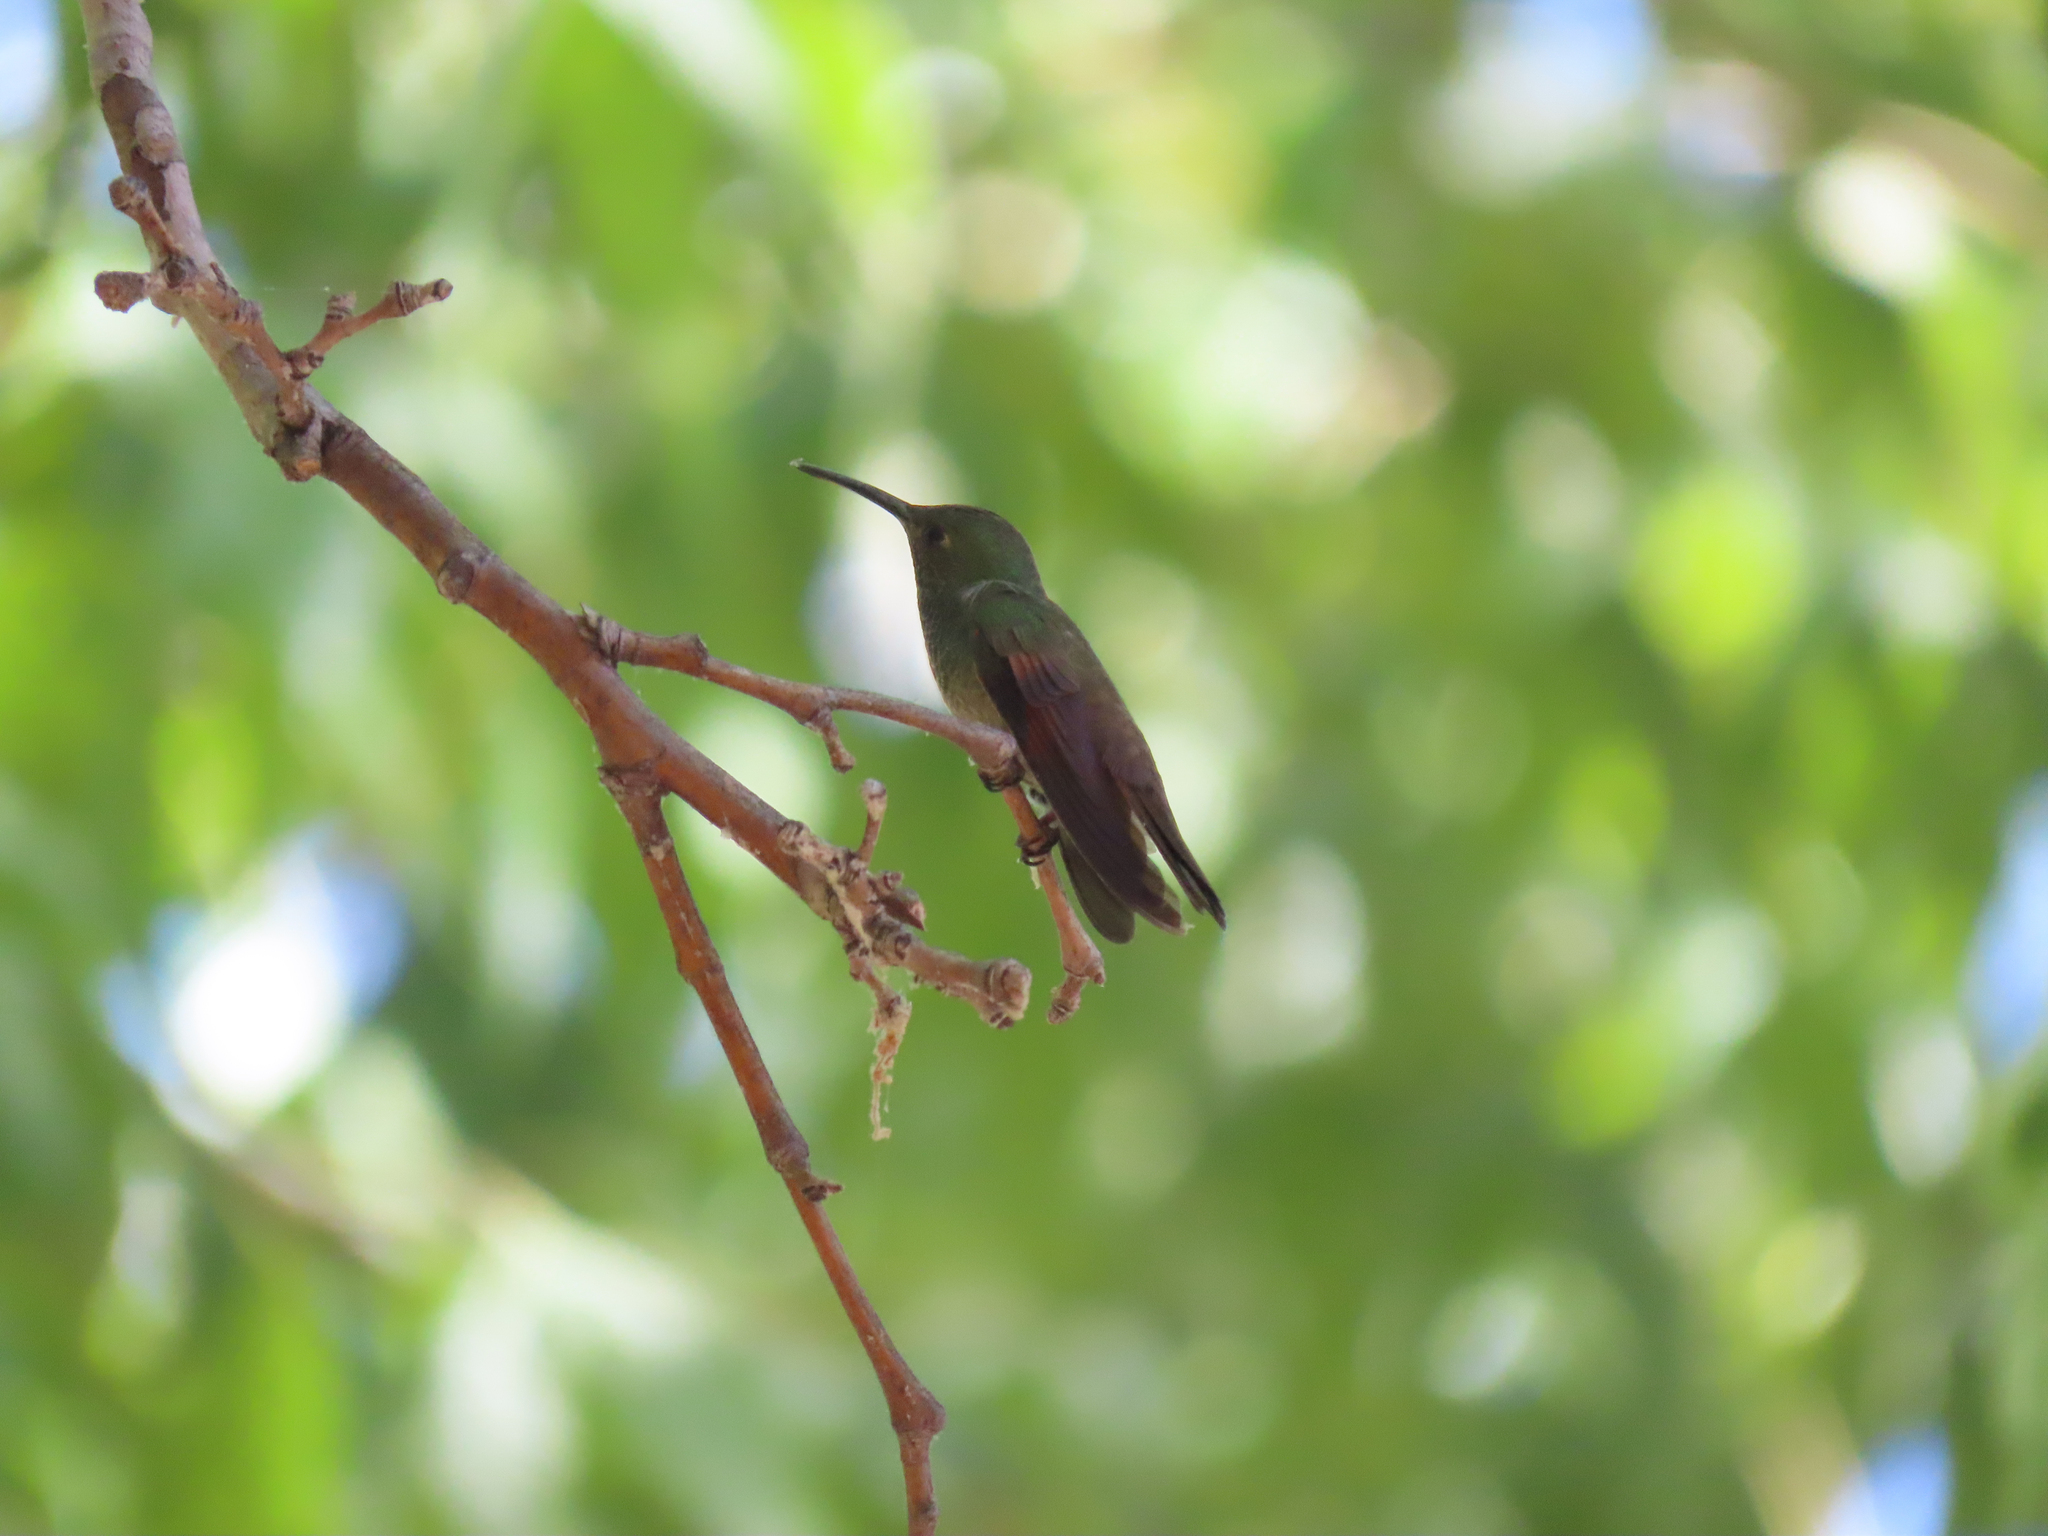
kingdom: Animalia
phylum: Chordata
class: Aves
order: Apodiformes
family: Trochilidae
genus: Saucerottia
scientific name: Saucerottia beryllina
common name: Berylline hummingbird
